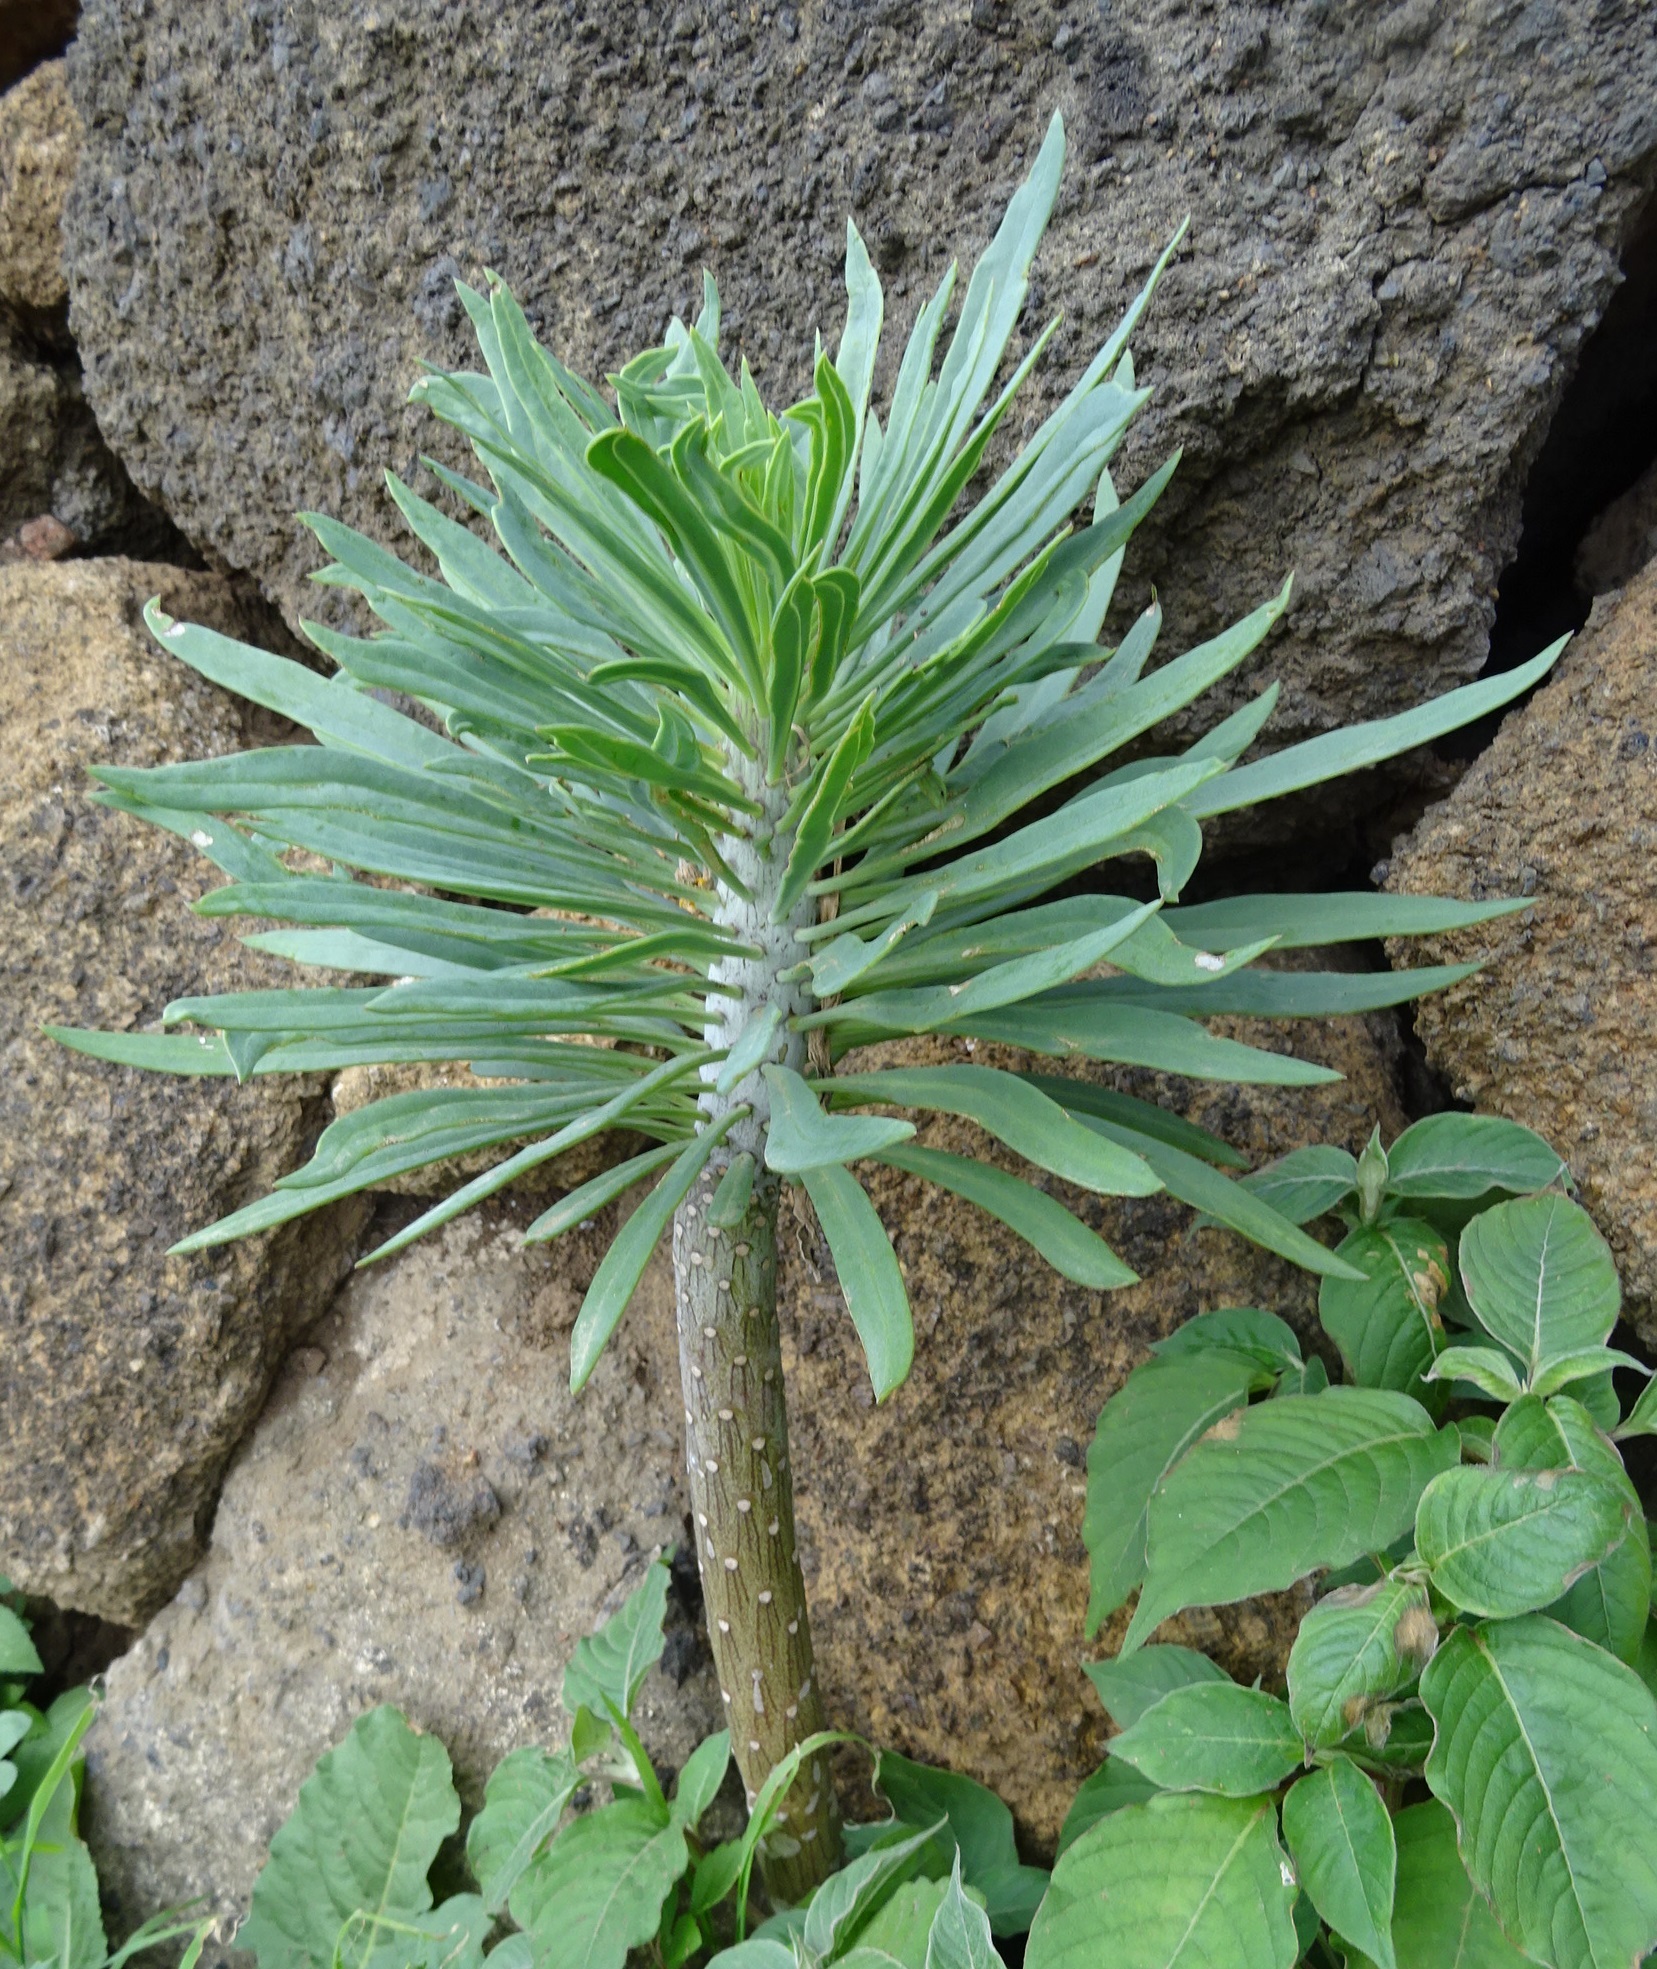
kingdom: Plantae
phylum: Tracheophyta
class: Magnoliopsida
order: Asterales
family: Asteraceae
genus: Kleinia
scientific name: Kleinia neriifolia
